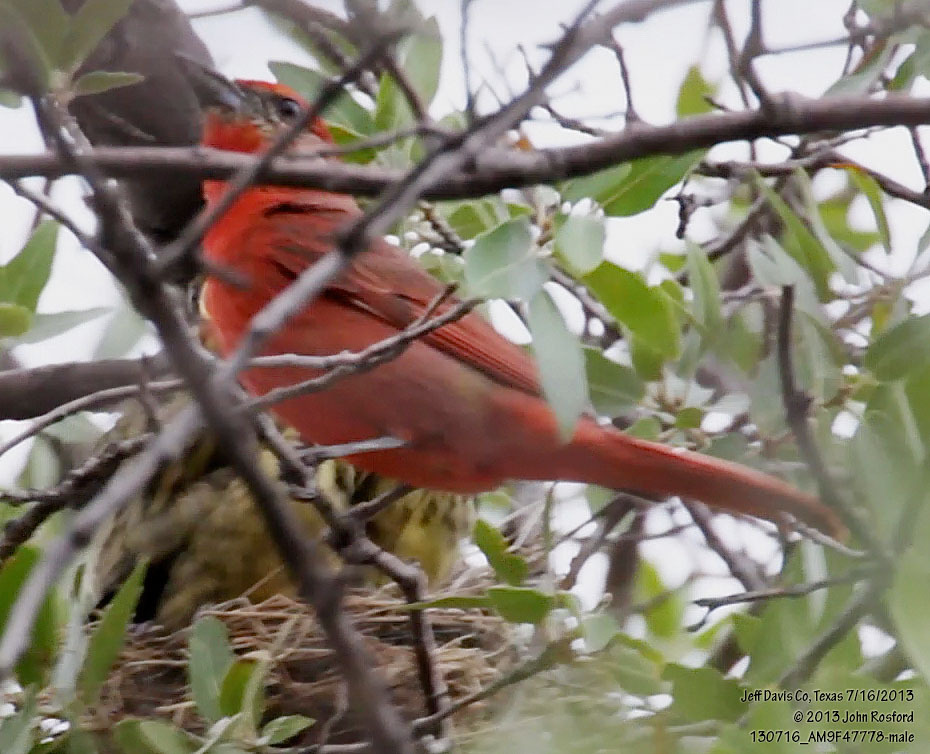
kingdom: Animalia
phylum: Chordata
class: Aves
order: Passeriformes
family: Cardinalidae
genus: Piranga
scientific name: Piranga flava
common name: Red tanager
